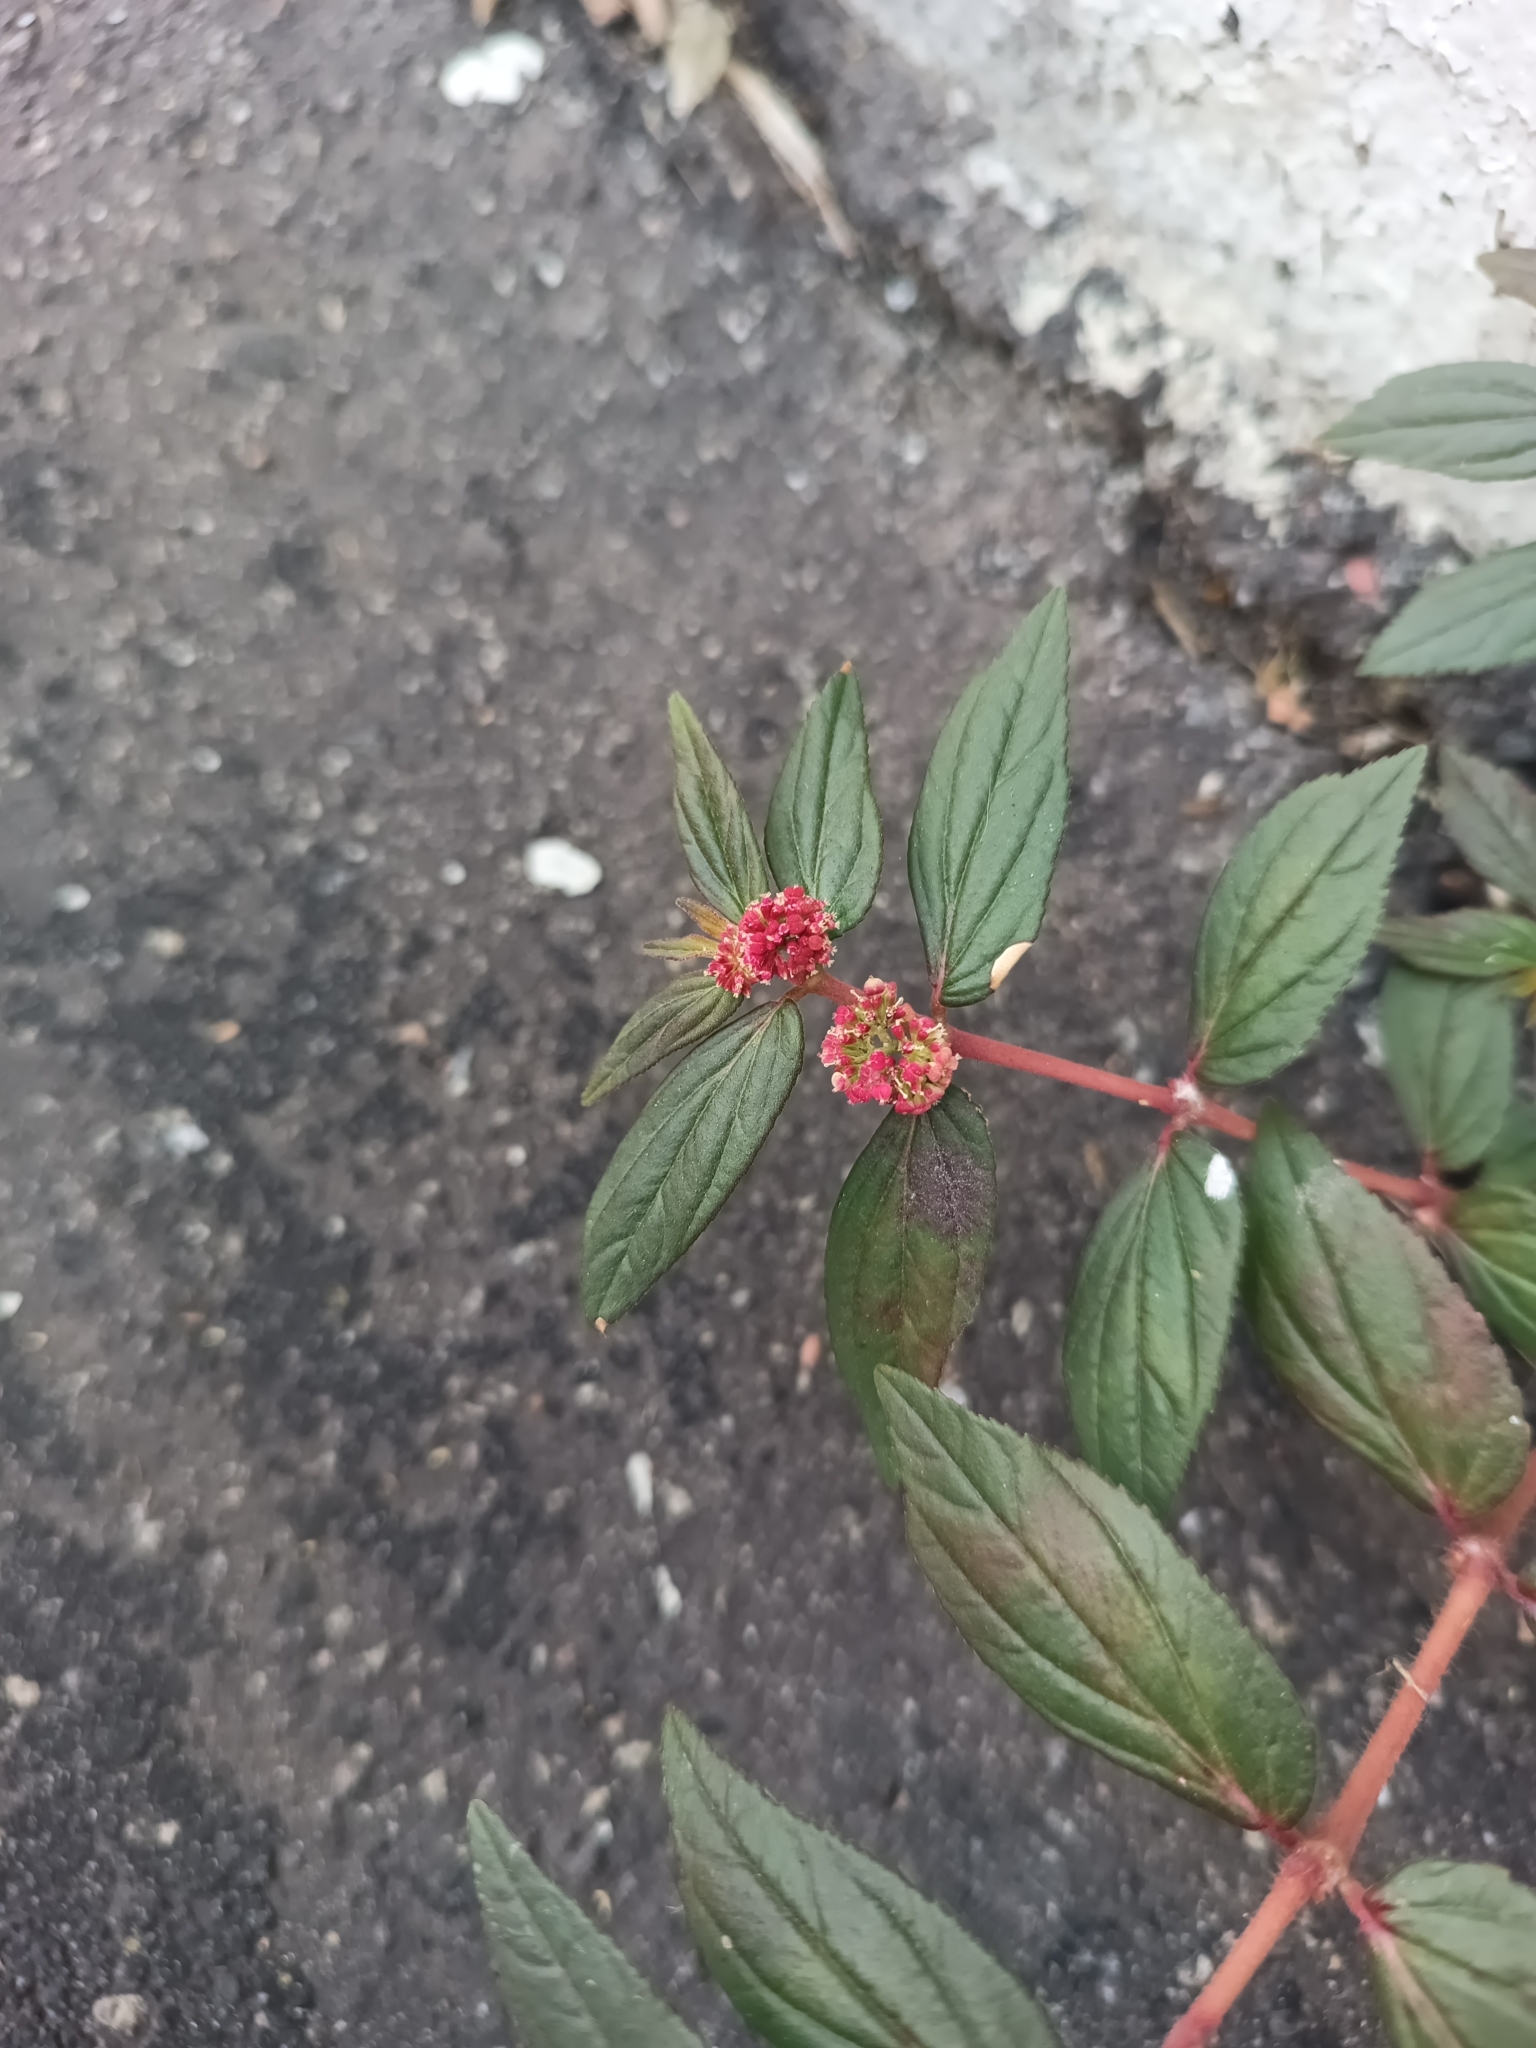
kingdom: Plantae
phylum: Tracheophyta
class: Magnoliopsida
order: Malpighiales
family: Euphorbiaceae
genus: Euphorbia
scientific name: Euphorbia hirta
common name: Pillpod sandmat
